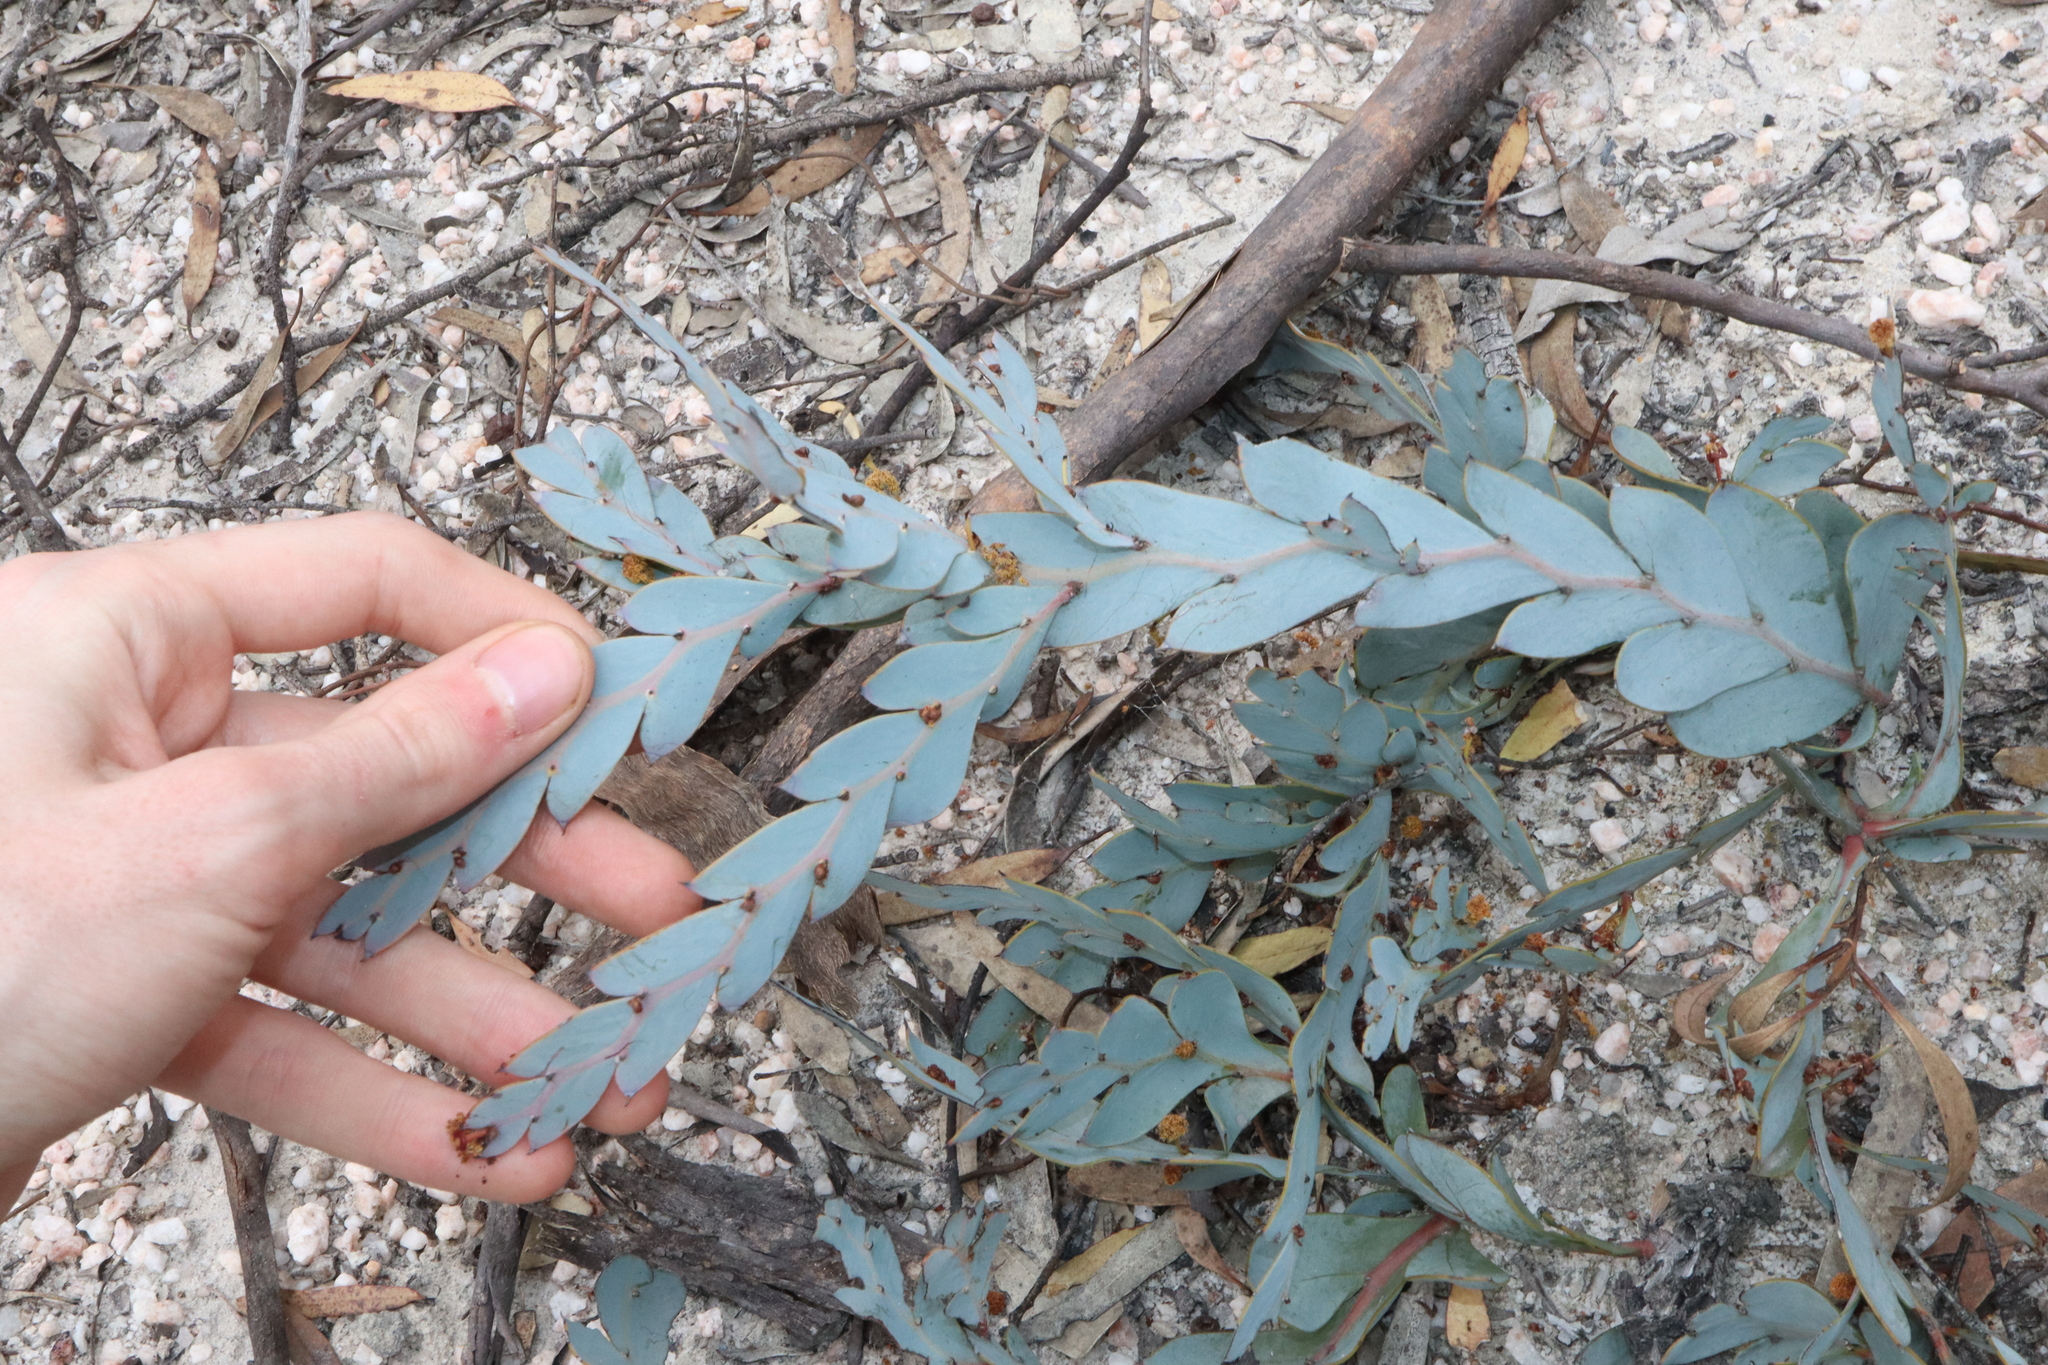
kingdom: Plantae
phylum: Tracheophyta
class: Magnoliopsida
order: Fabales
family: Fabaceae
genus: Acacia
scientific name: Acacia glaucoptera
